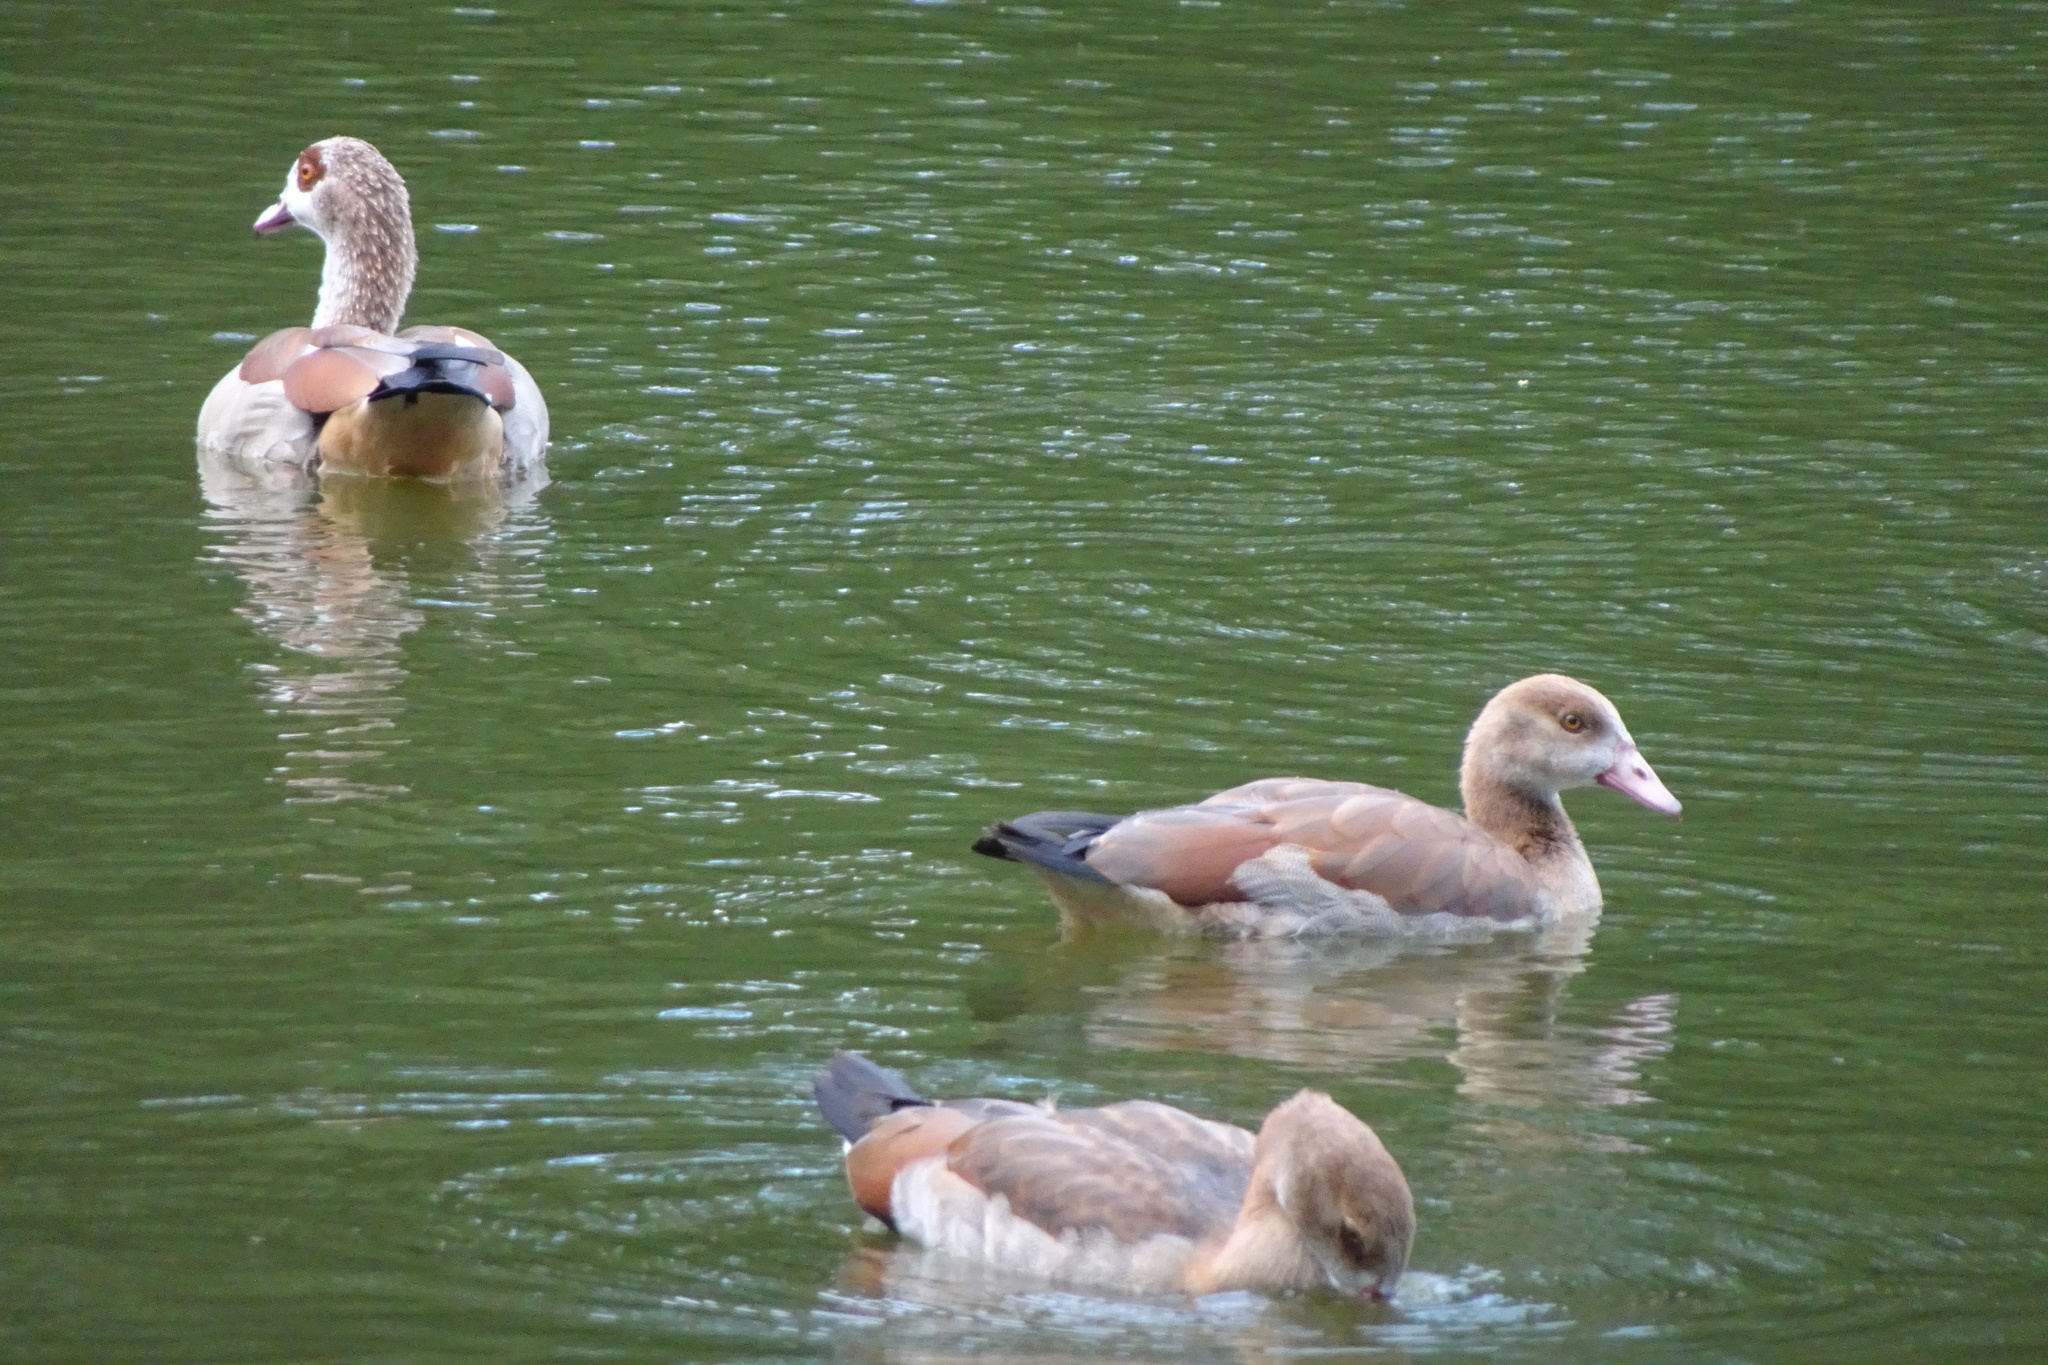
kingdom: Animalia
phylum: Chordata
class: Aves
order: Anseriformes
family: Anatidae
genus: Alopochen
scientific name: Alopochen aegyptiaca
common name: Egyptian goose
